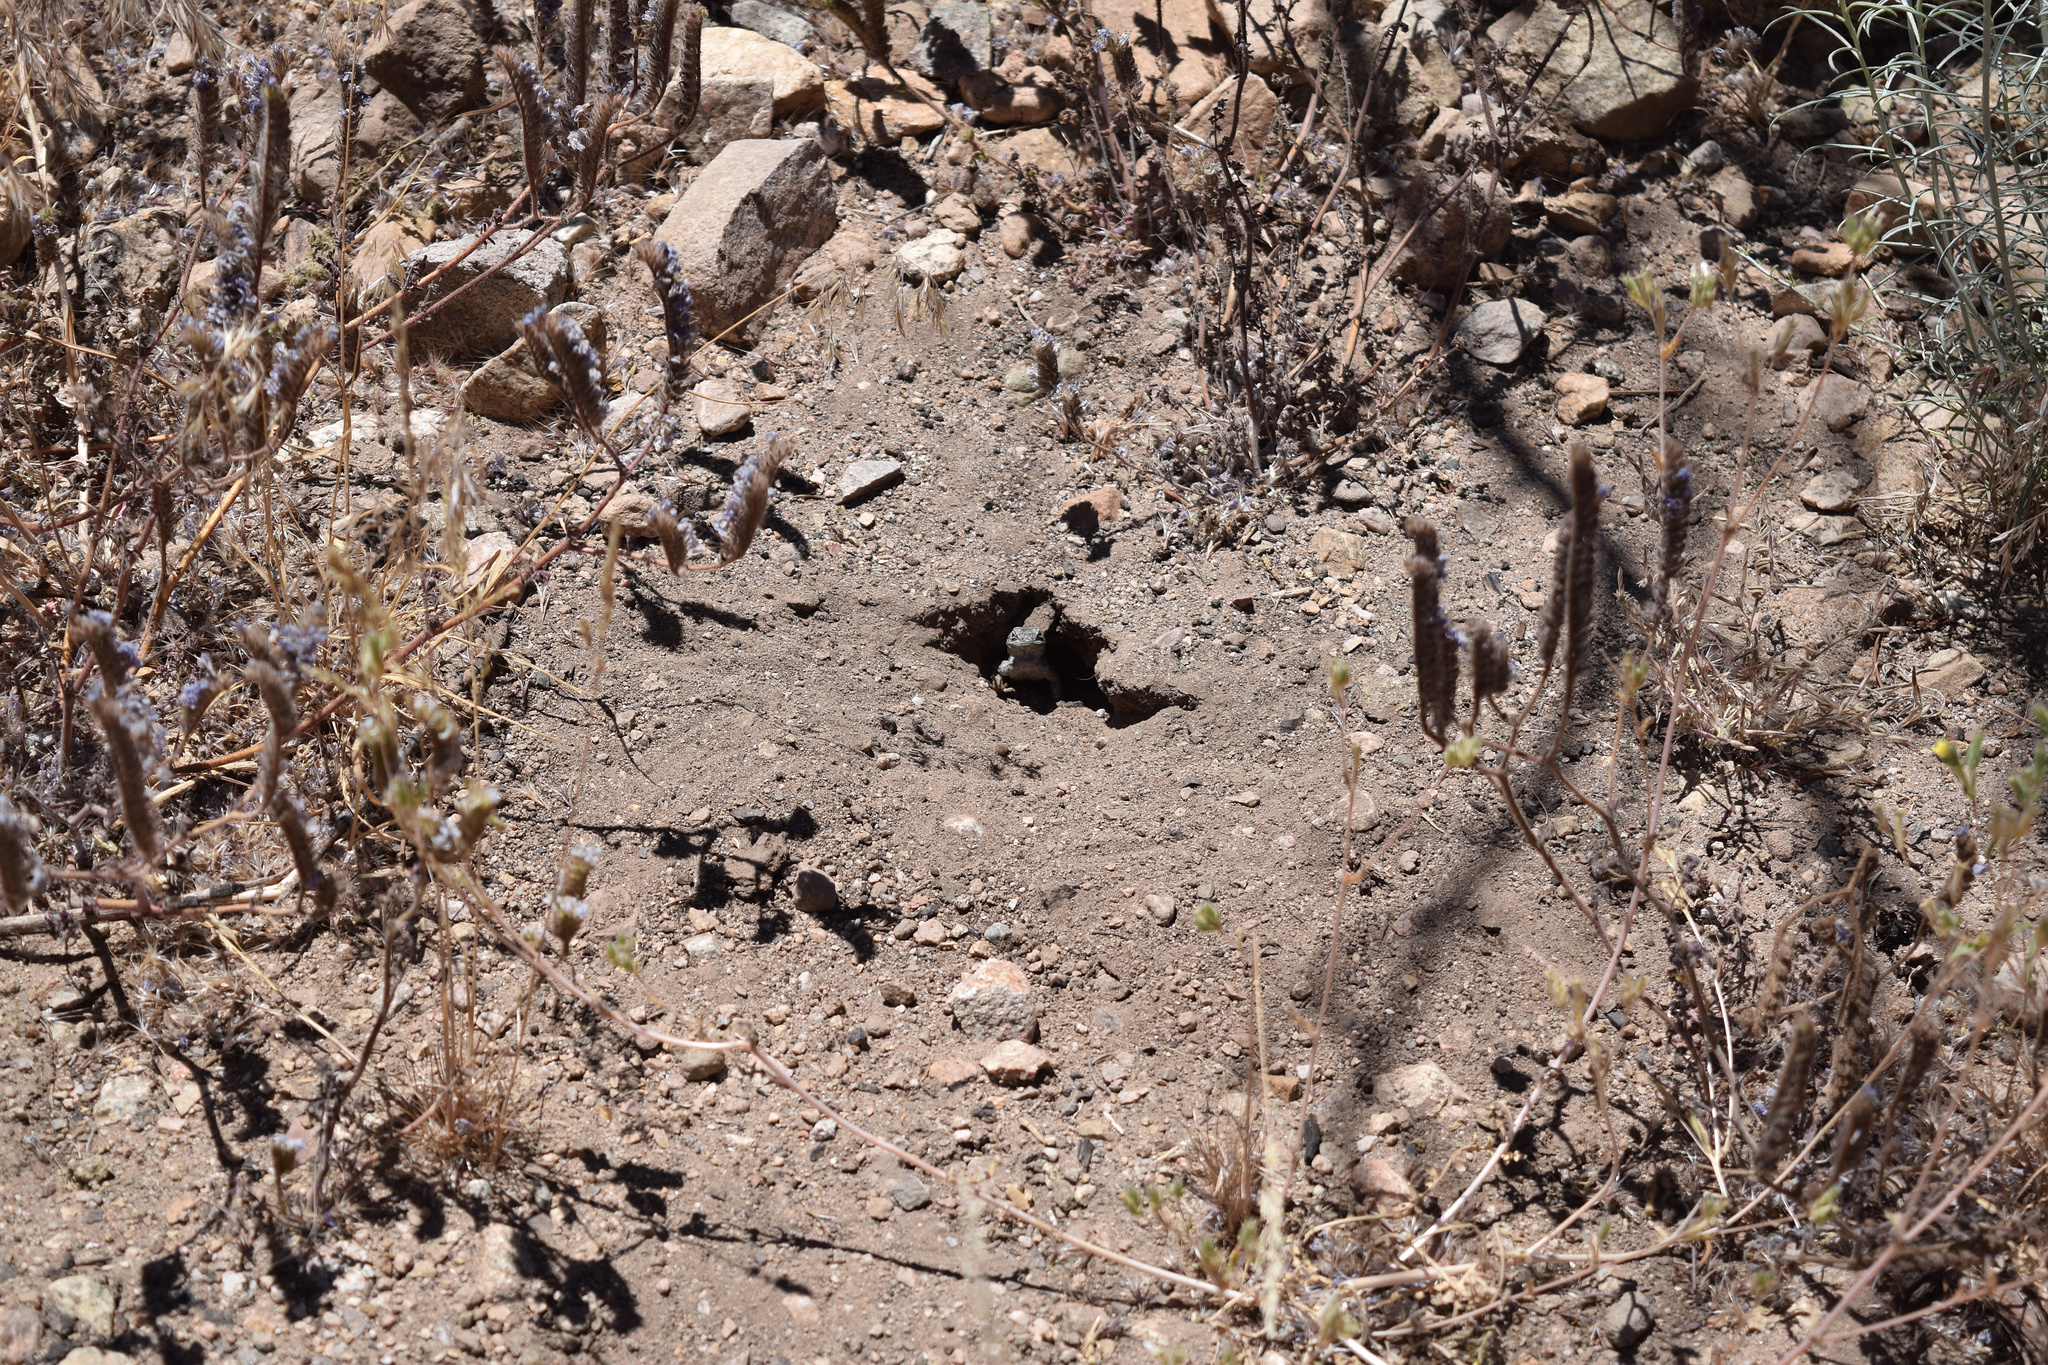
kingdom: Animalia
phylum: Chordata
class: Squamata
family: Phrynosomatidae
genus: Sceloporus
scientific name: Sceloporus occidentalis
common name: Western fence lizard
